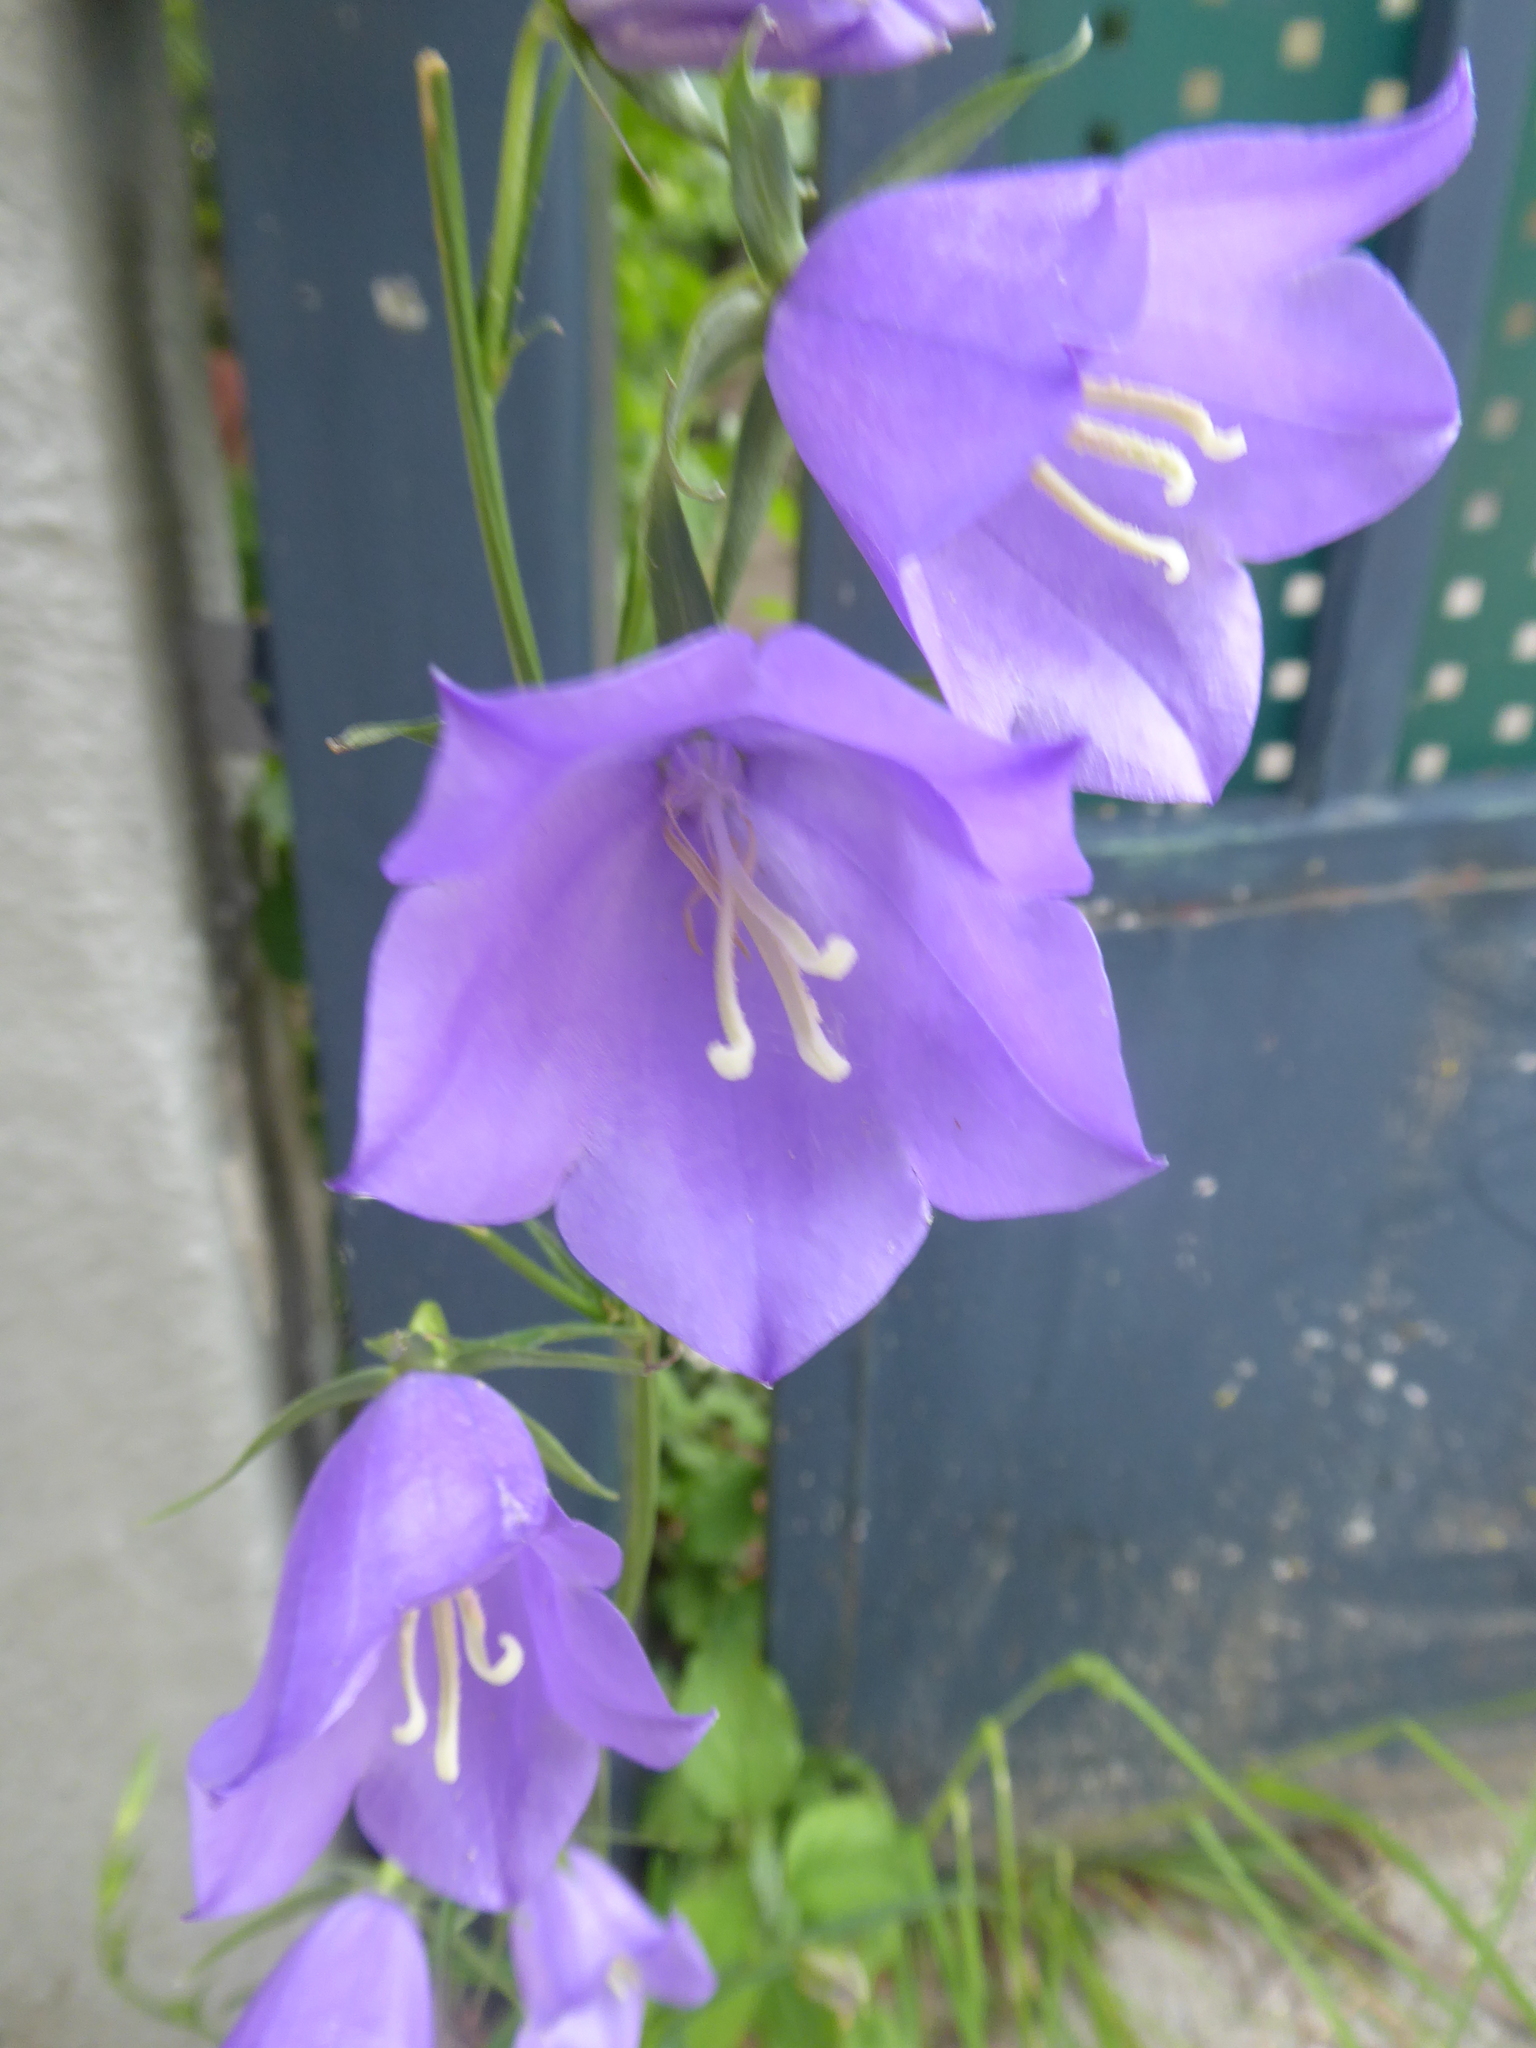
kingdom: Plantae
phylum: Tracheophyta
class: Magnoliopsida
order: Asterales
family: Campanulaceae
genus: Campanula
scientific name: Campanula persicifolia
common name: Peach-leaved bellflower
